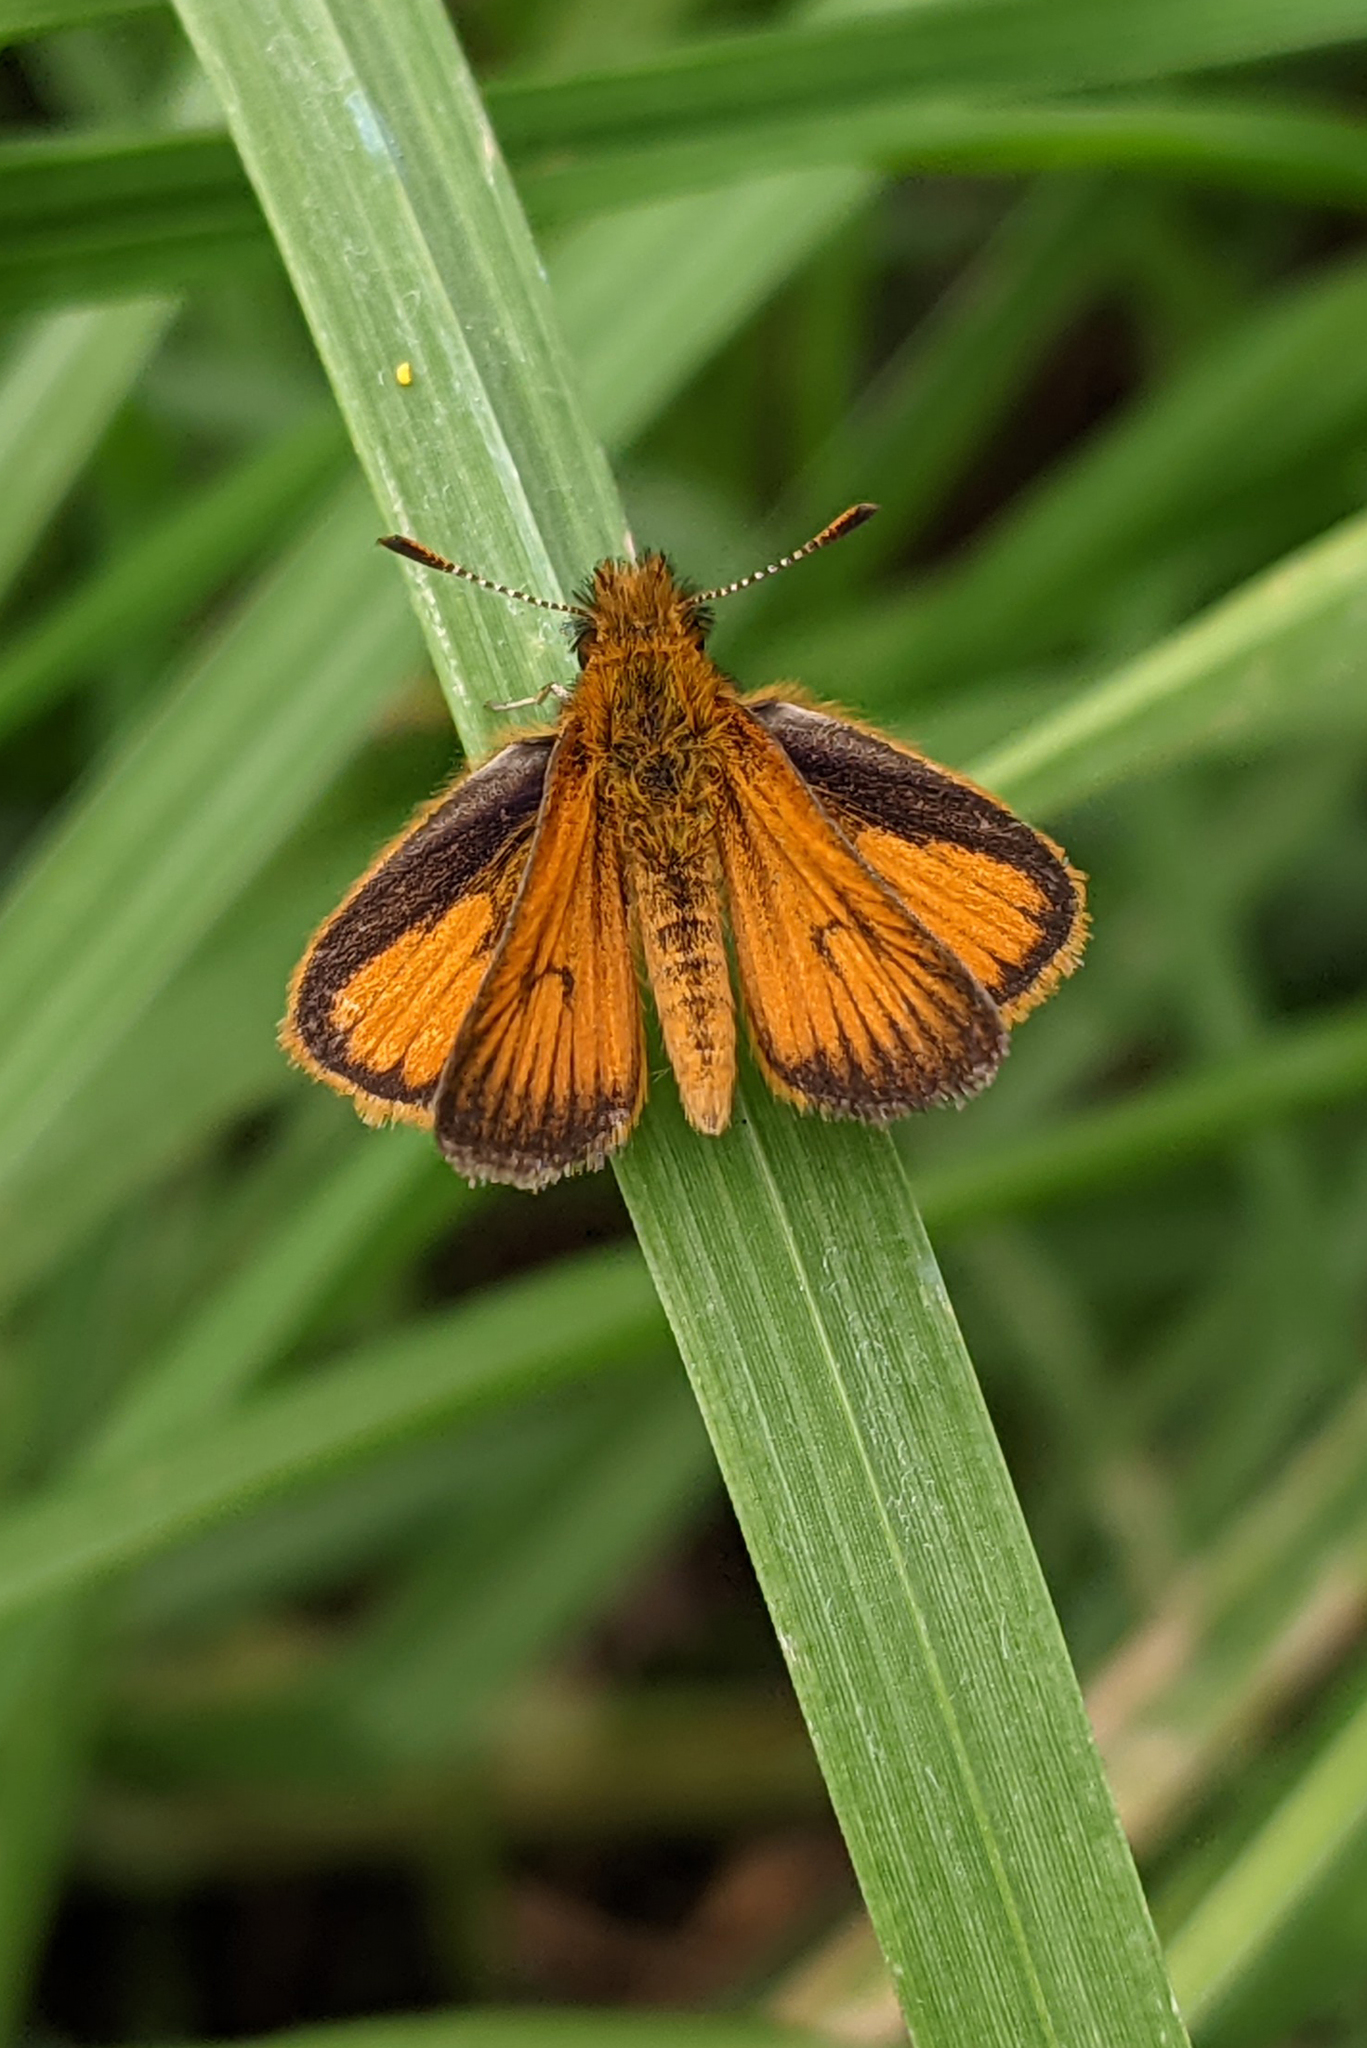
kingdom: Animalia
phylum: Arthropoda
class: Insecta
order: Lepidoptera
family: Hesperiidae
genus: Ancyloxypha
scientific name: Ancyloxypha aurea
